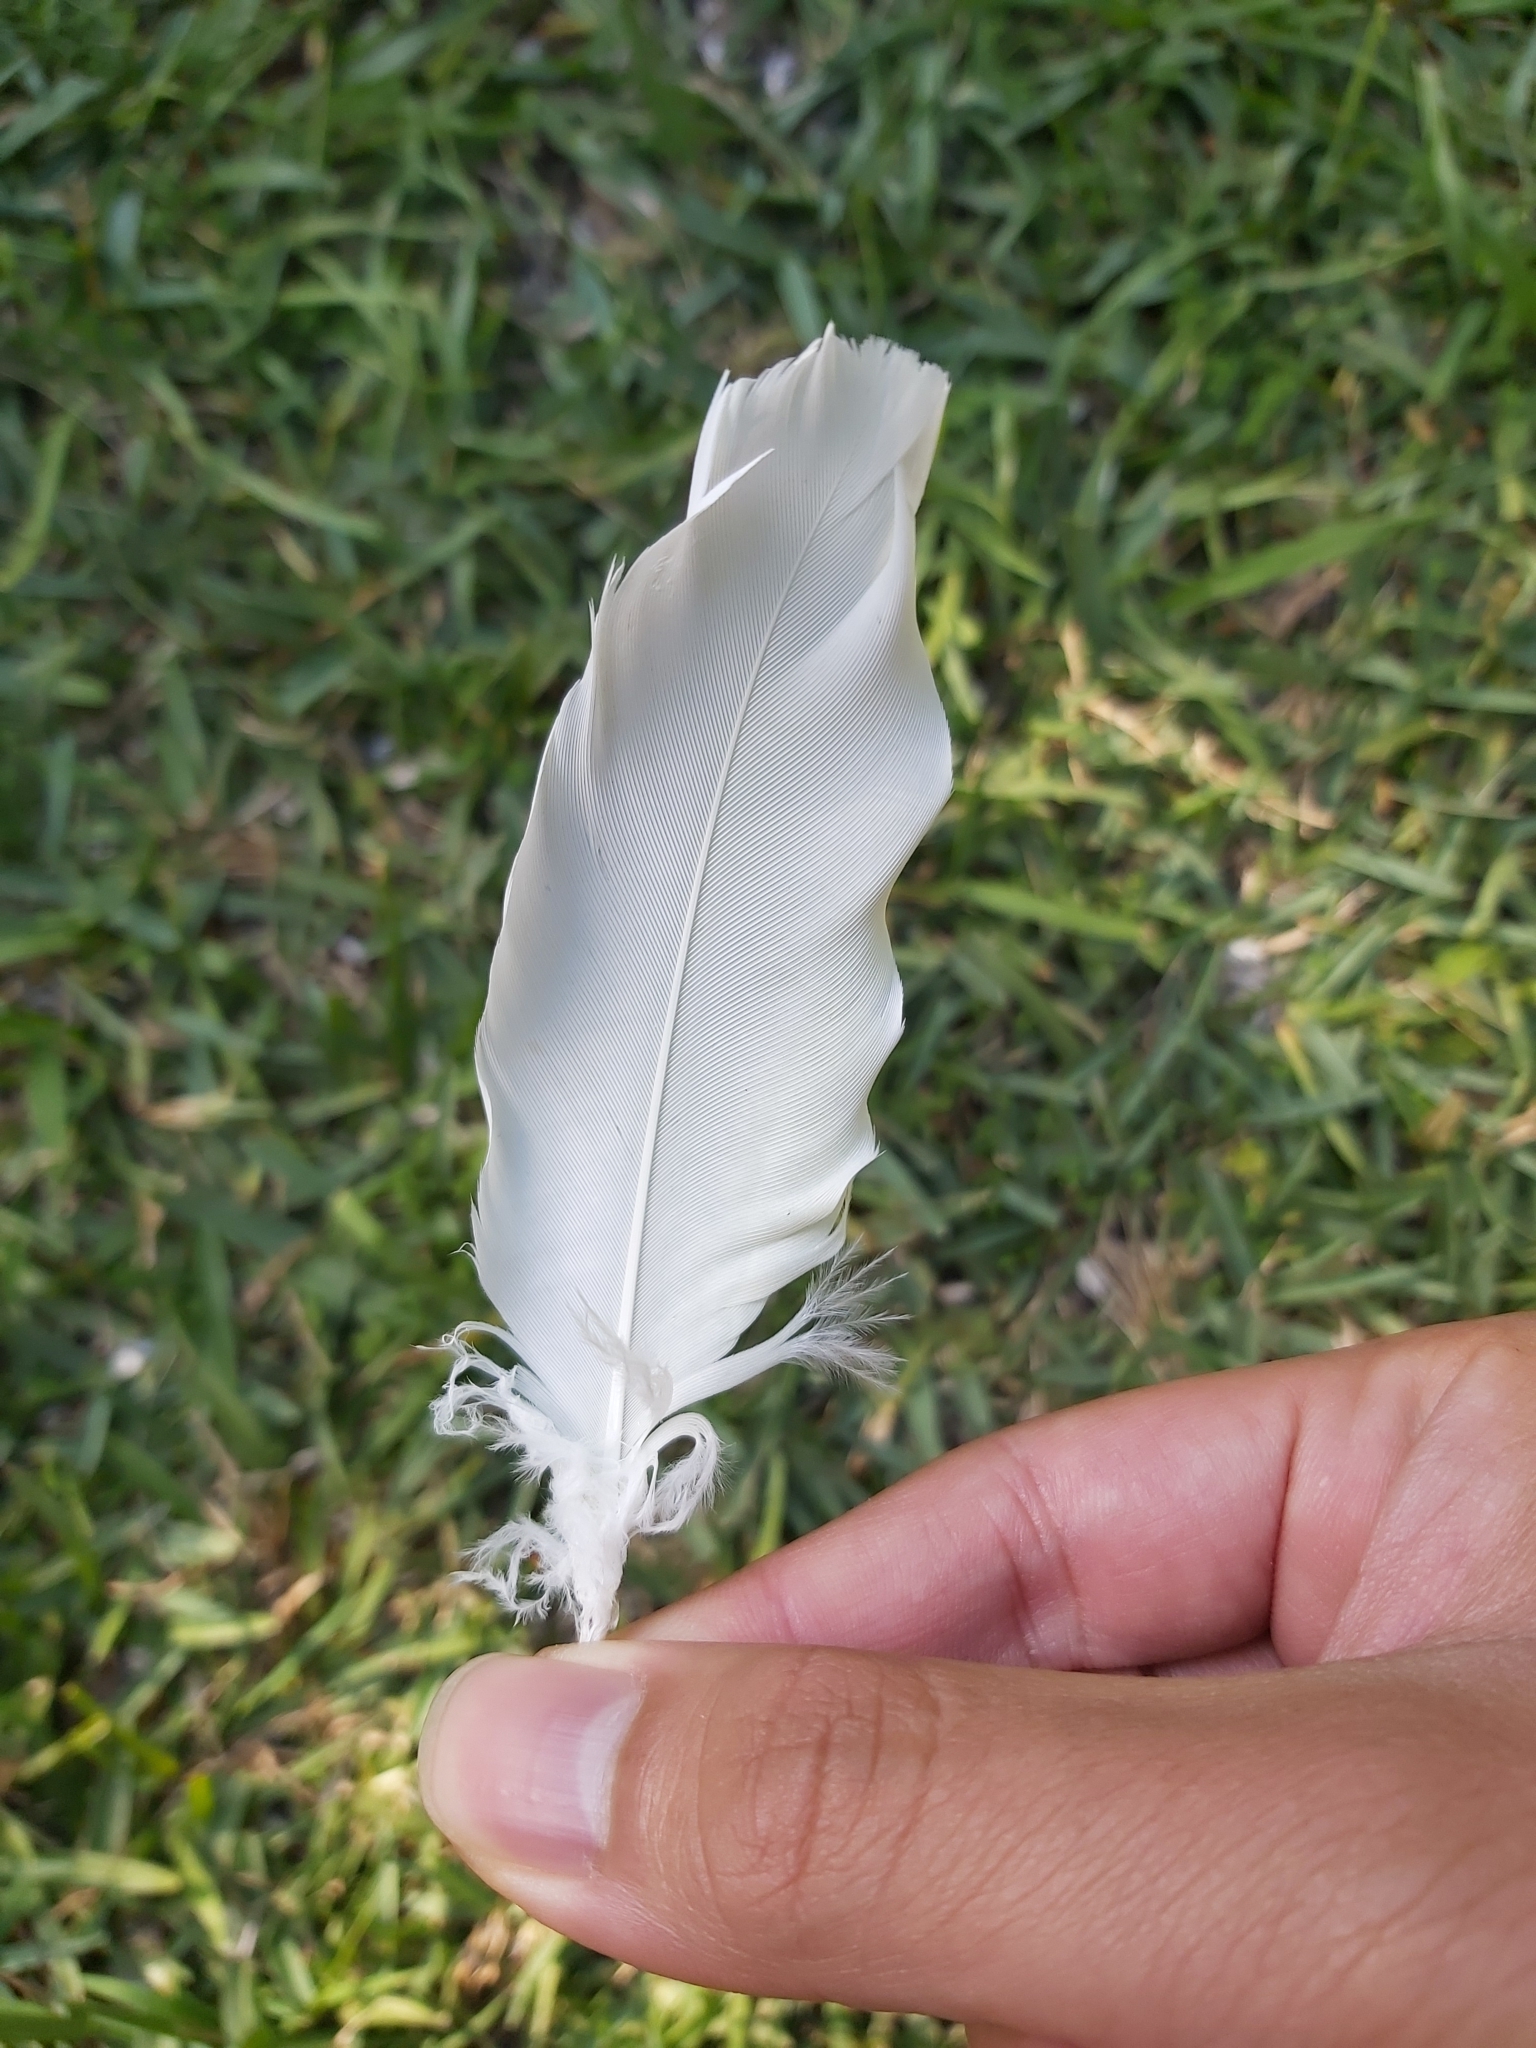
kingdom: Animalia
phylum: Chordata
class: Aves
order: Psittaciformes
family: Psittacidae
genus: Cacatua
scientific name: Cacatua galerita
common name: Sulphur-crested cockatoo
